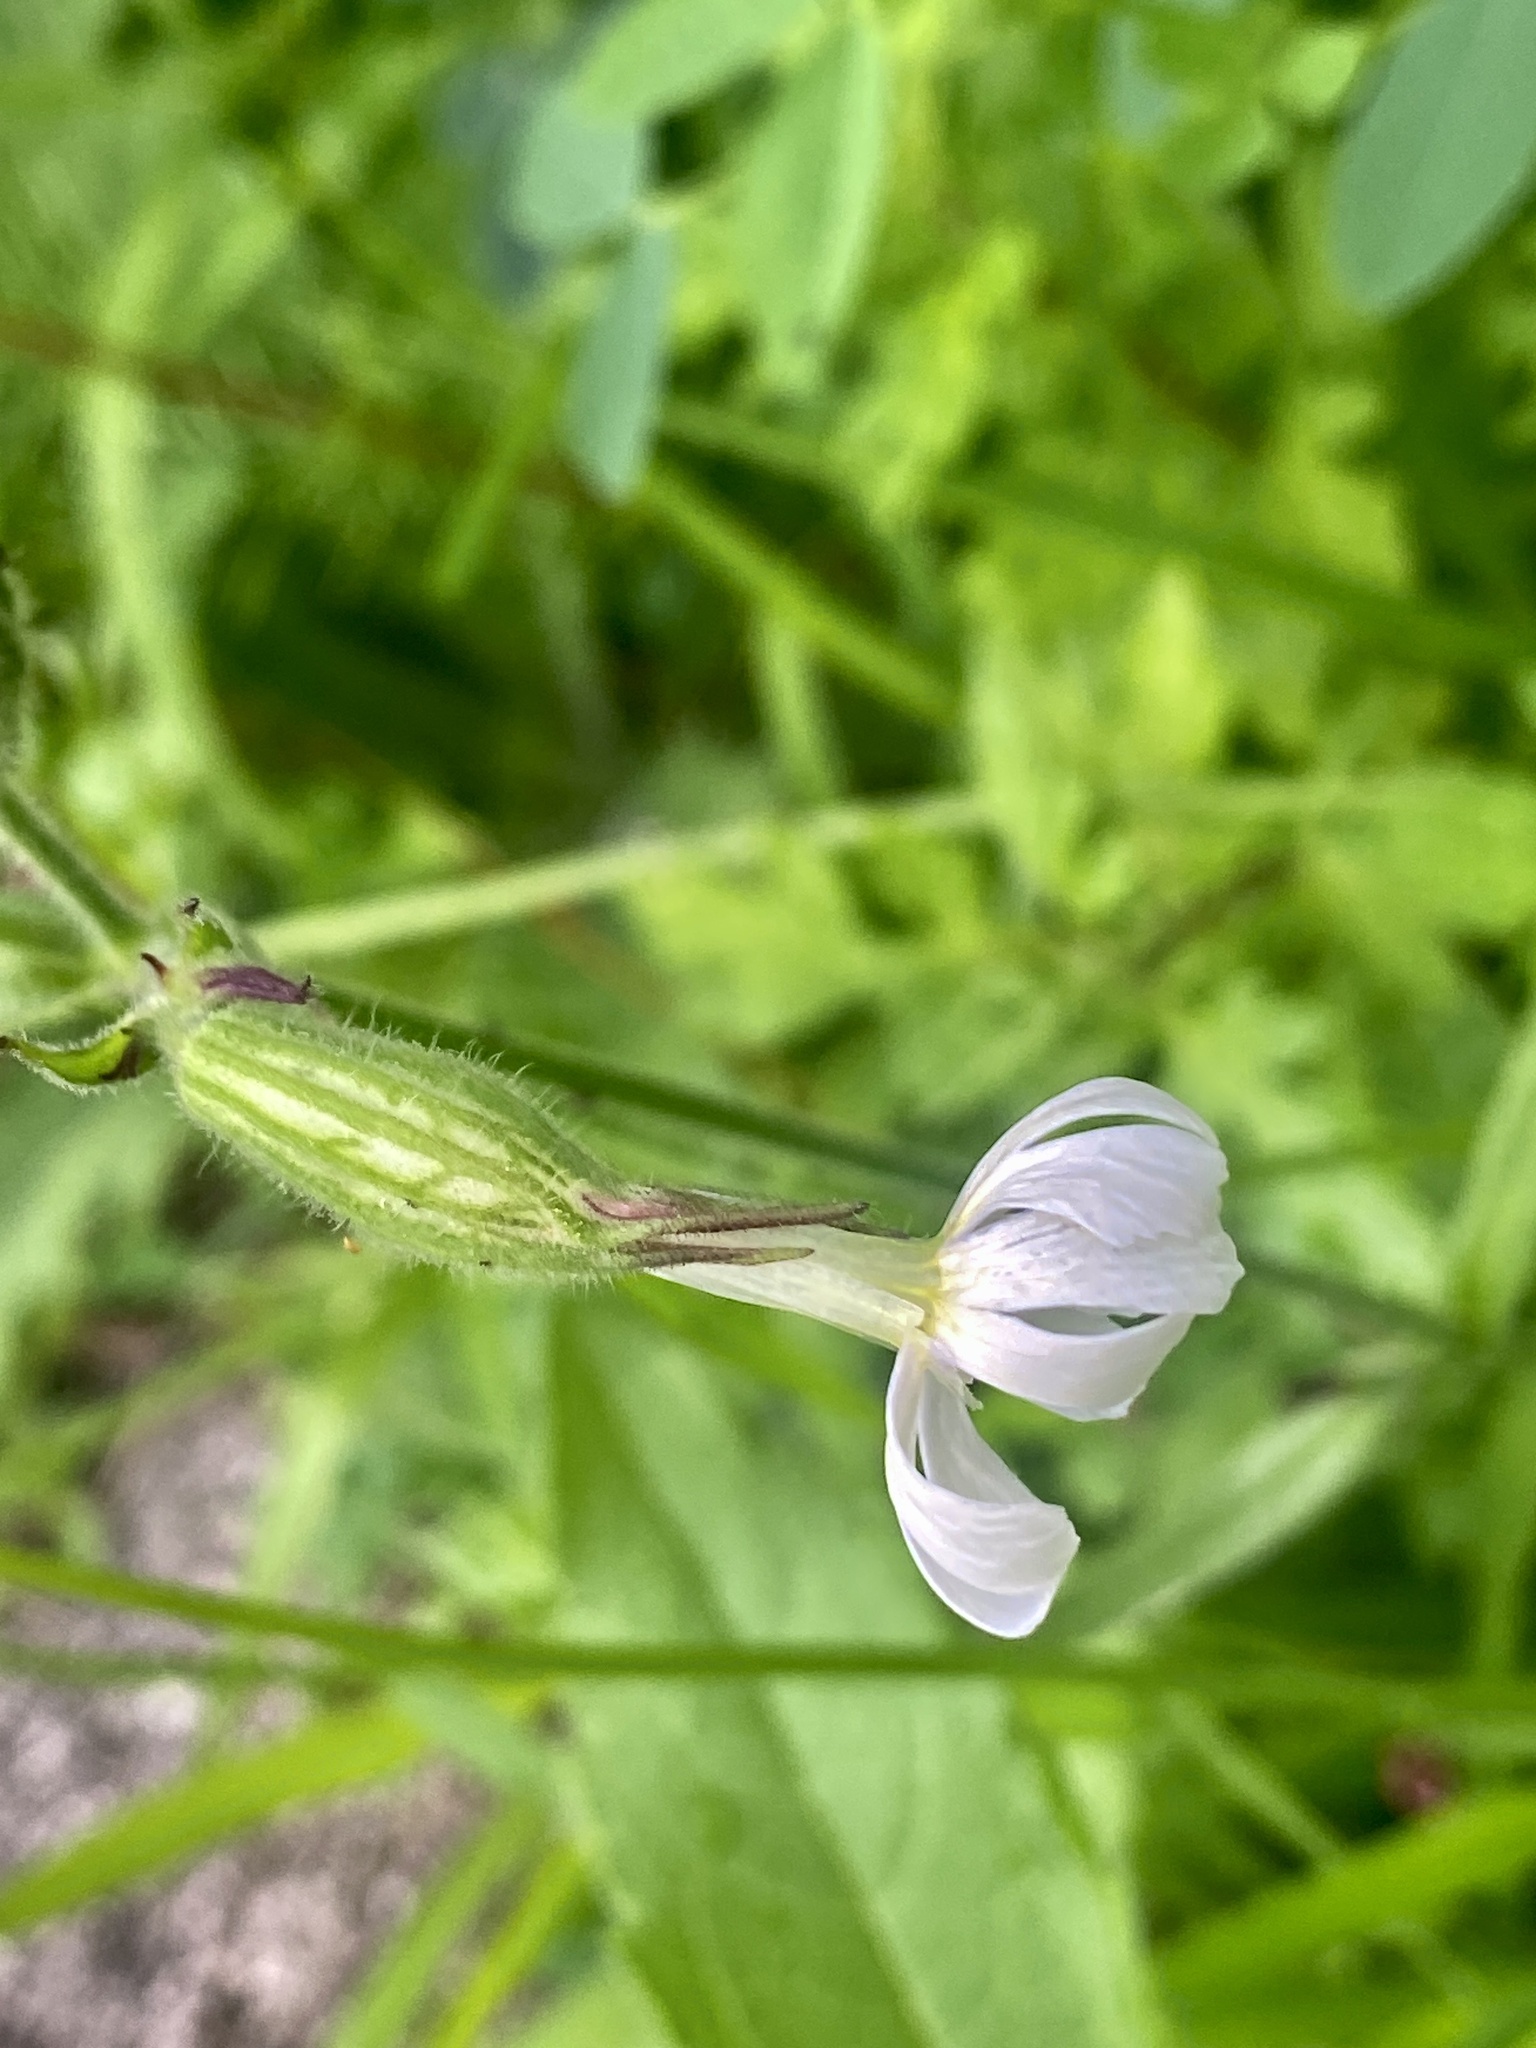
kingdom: Plantae
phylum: Tracheophyta
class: Magnoliopsida
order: Caryophyllales
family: Caryophyllaceae
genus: Silene
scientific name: Silene latifolia
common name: White campion
